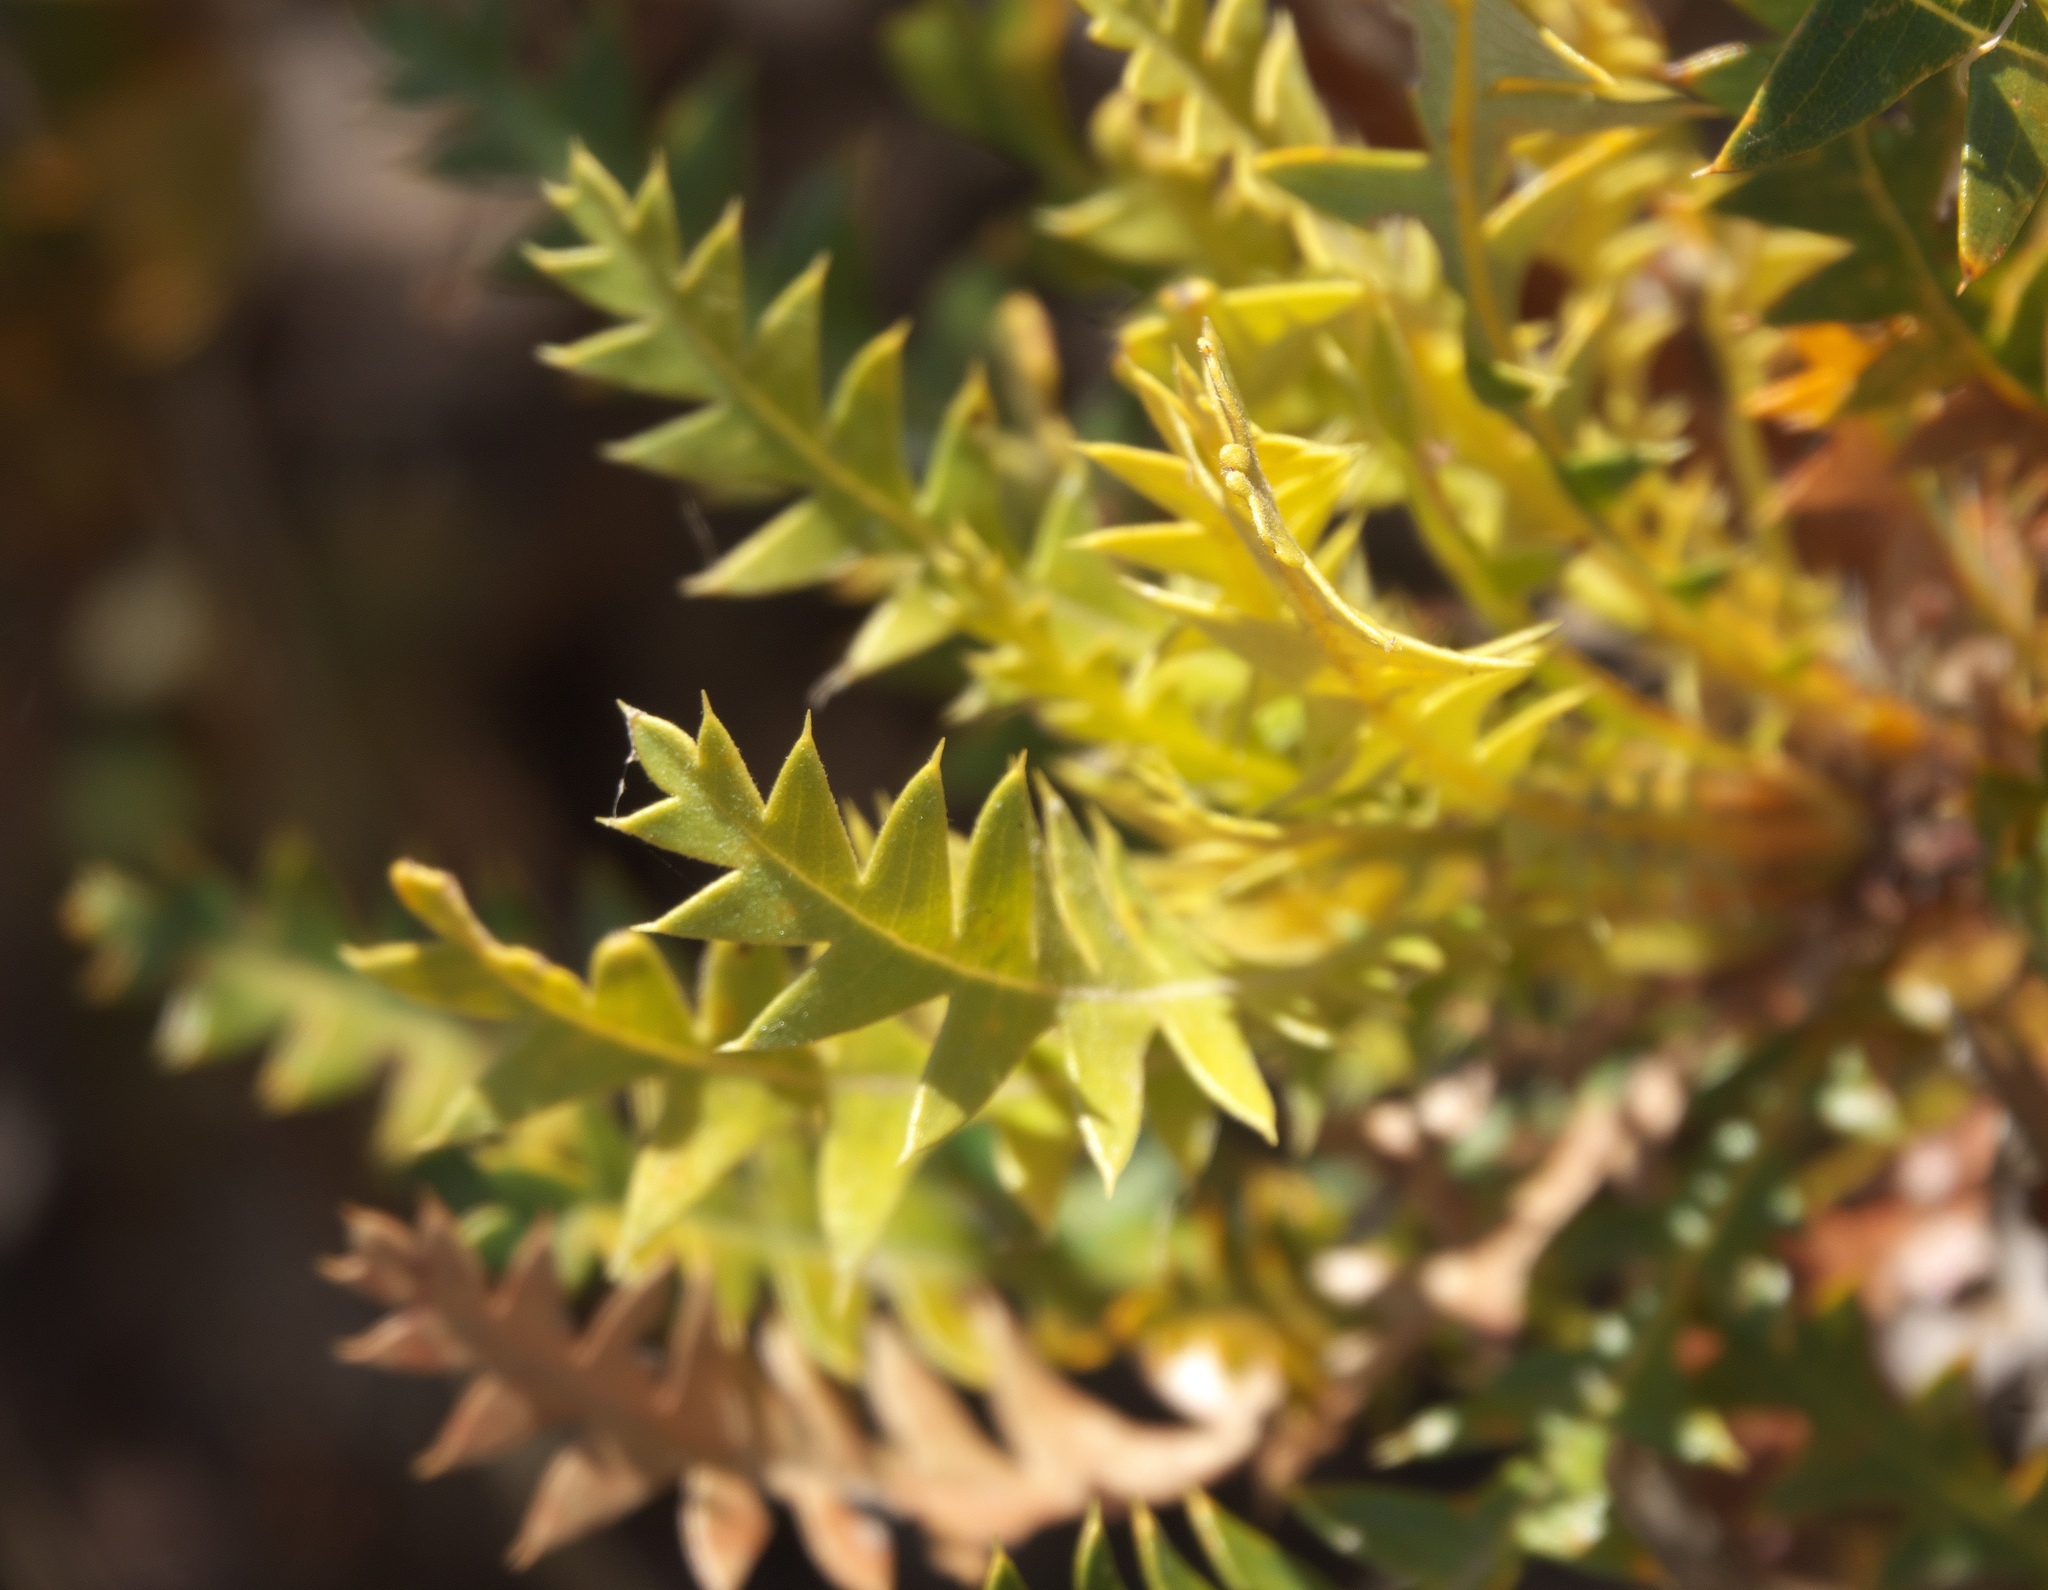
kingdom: Plantae
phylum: Tracheophyta
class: Magnoliopsida
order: Proteales
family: Proteaceae
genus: Banksia
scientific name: Banksia armata
